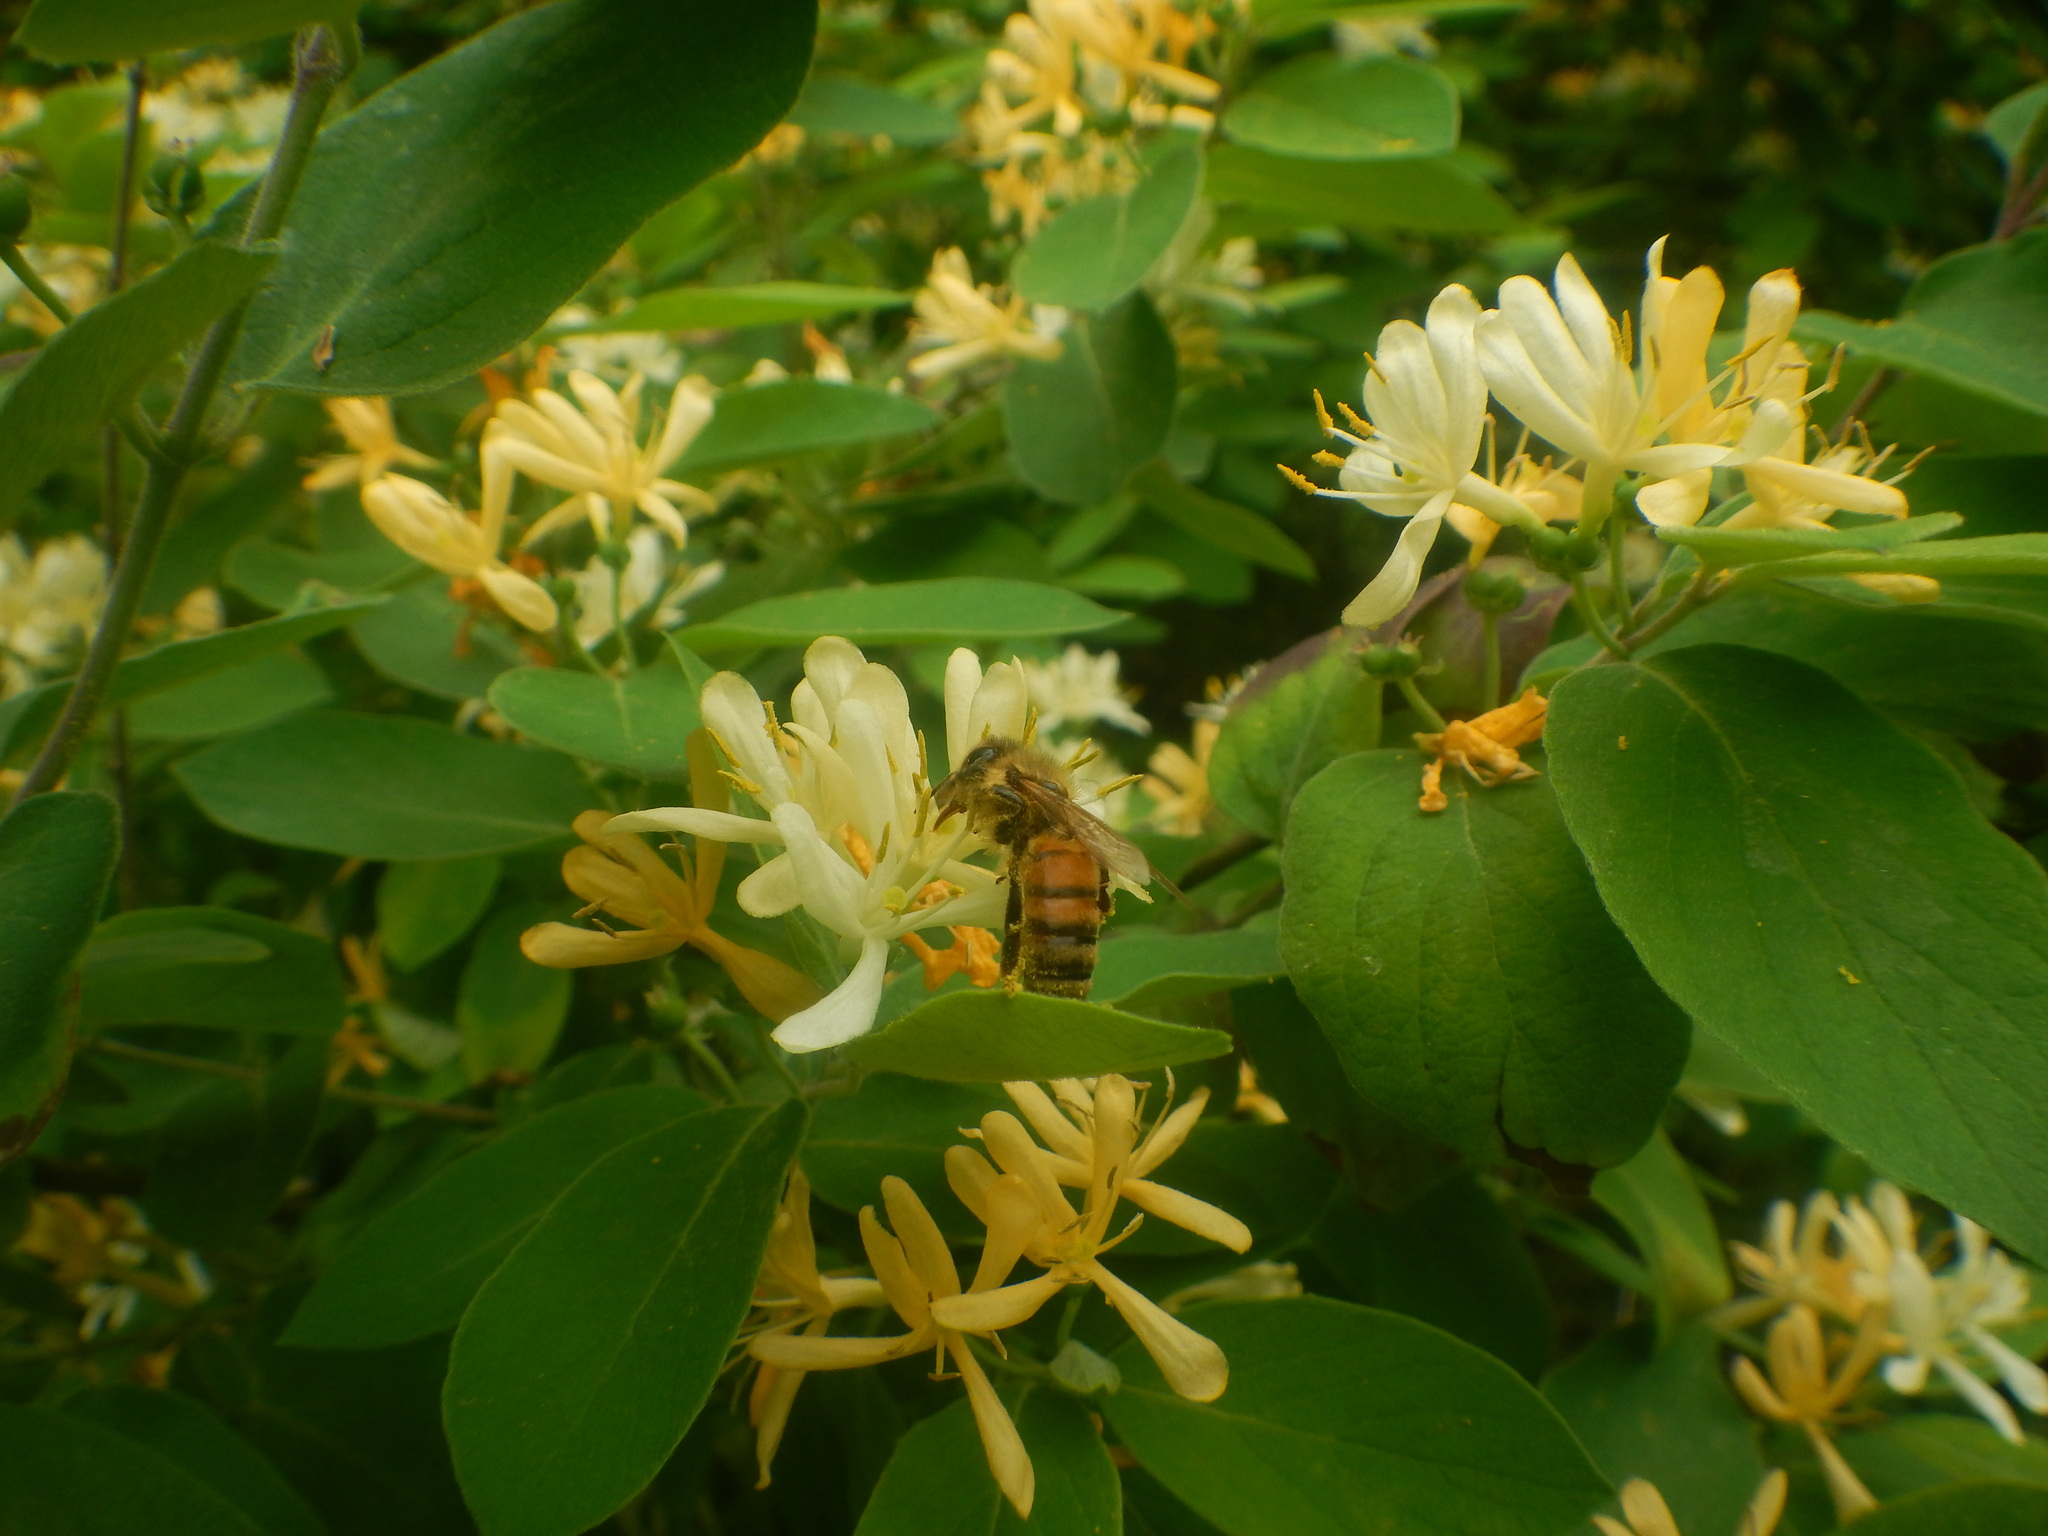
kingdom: Animalia
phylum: Arthropoda
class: Insecta
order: Hymenoptera
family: Apidae
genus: Apis
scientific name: Apis mellifera
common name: Honey bee
